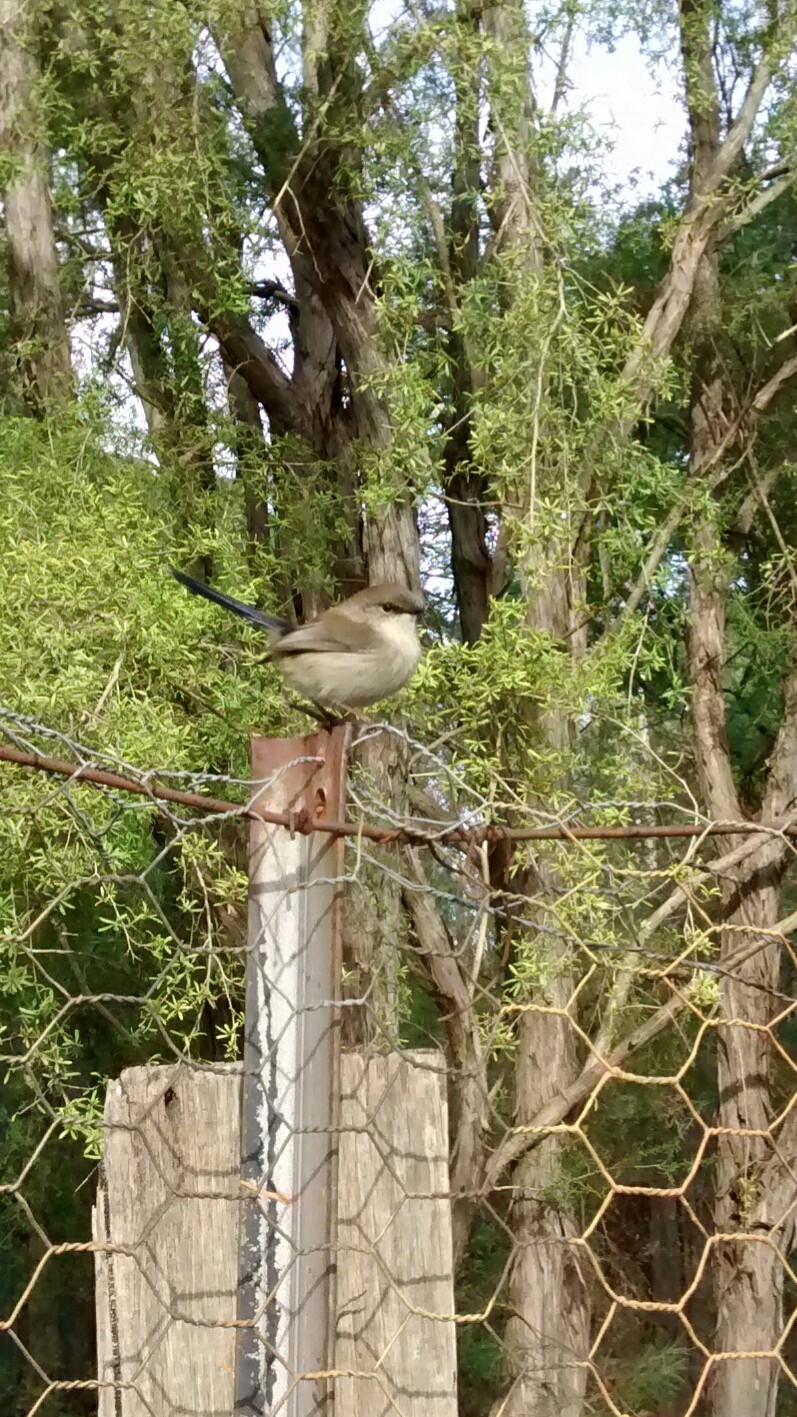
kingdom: Animalia
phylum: Chordata
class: Aves
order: Passeriformes
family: Maluridae
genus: Malurus
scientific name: Malurus cyaneus
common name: Superb fairywren
